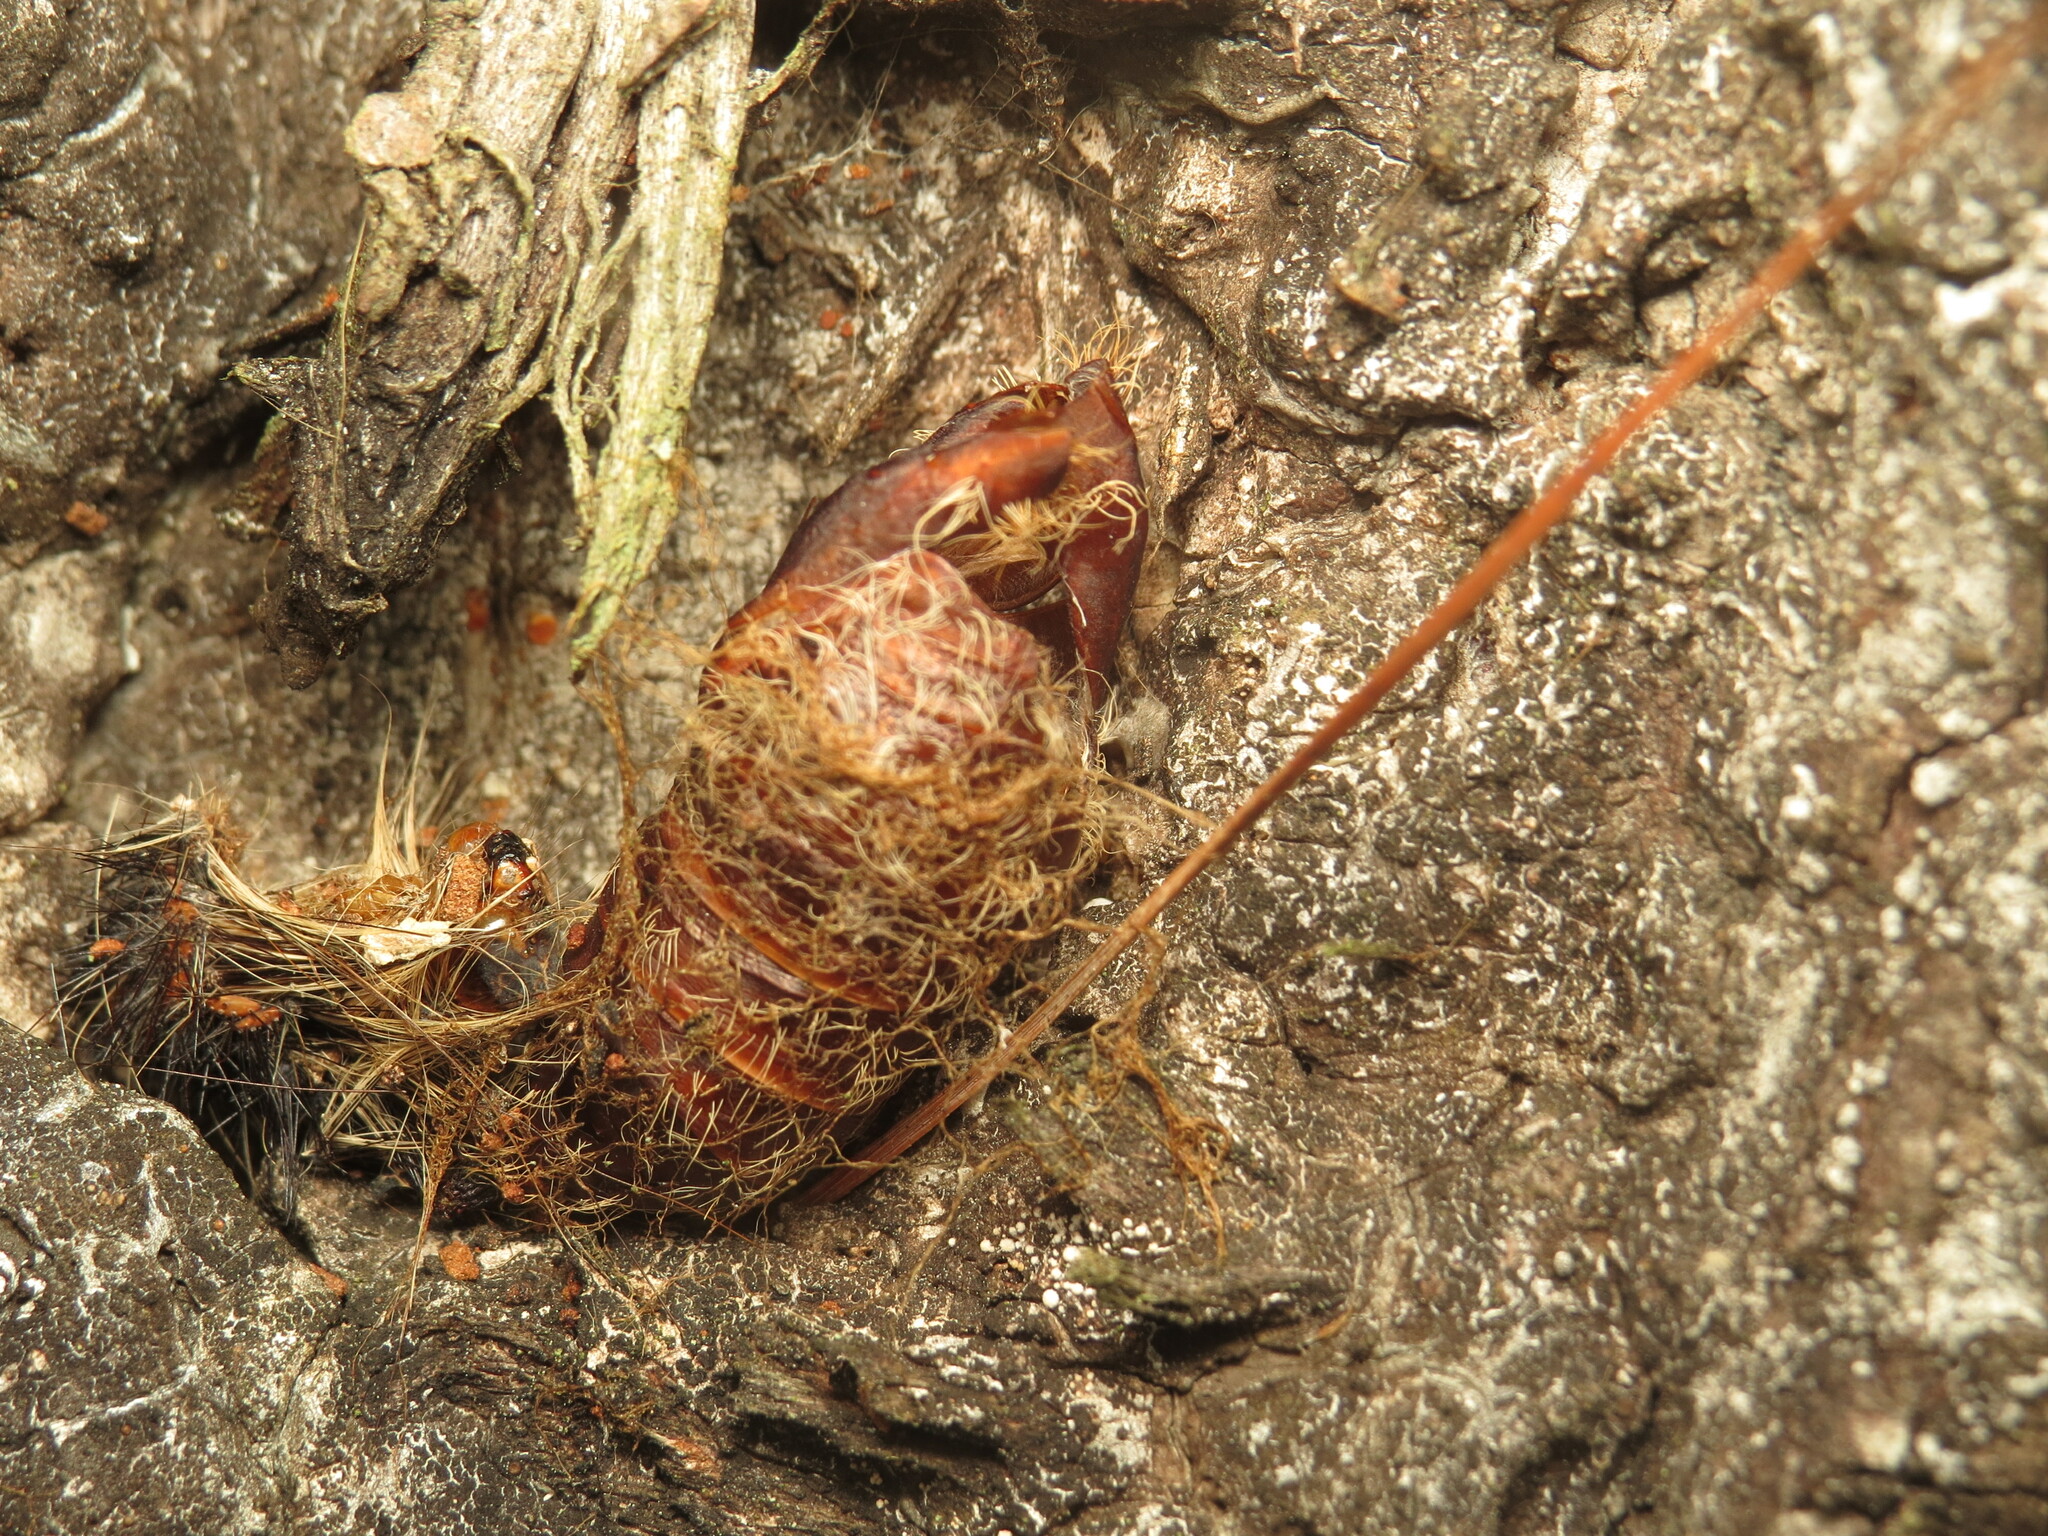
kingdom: Animalia
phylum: Arthropoda
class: Insecta
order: Lepidoptera
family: Erebidae
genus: Lymantria
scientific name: Lymantria dispar
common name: Gypsy moth
